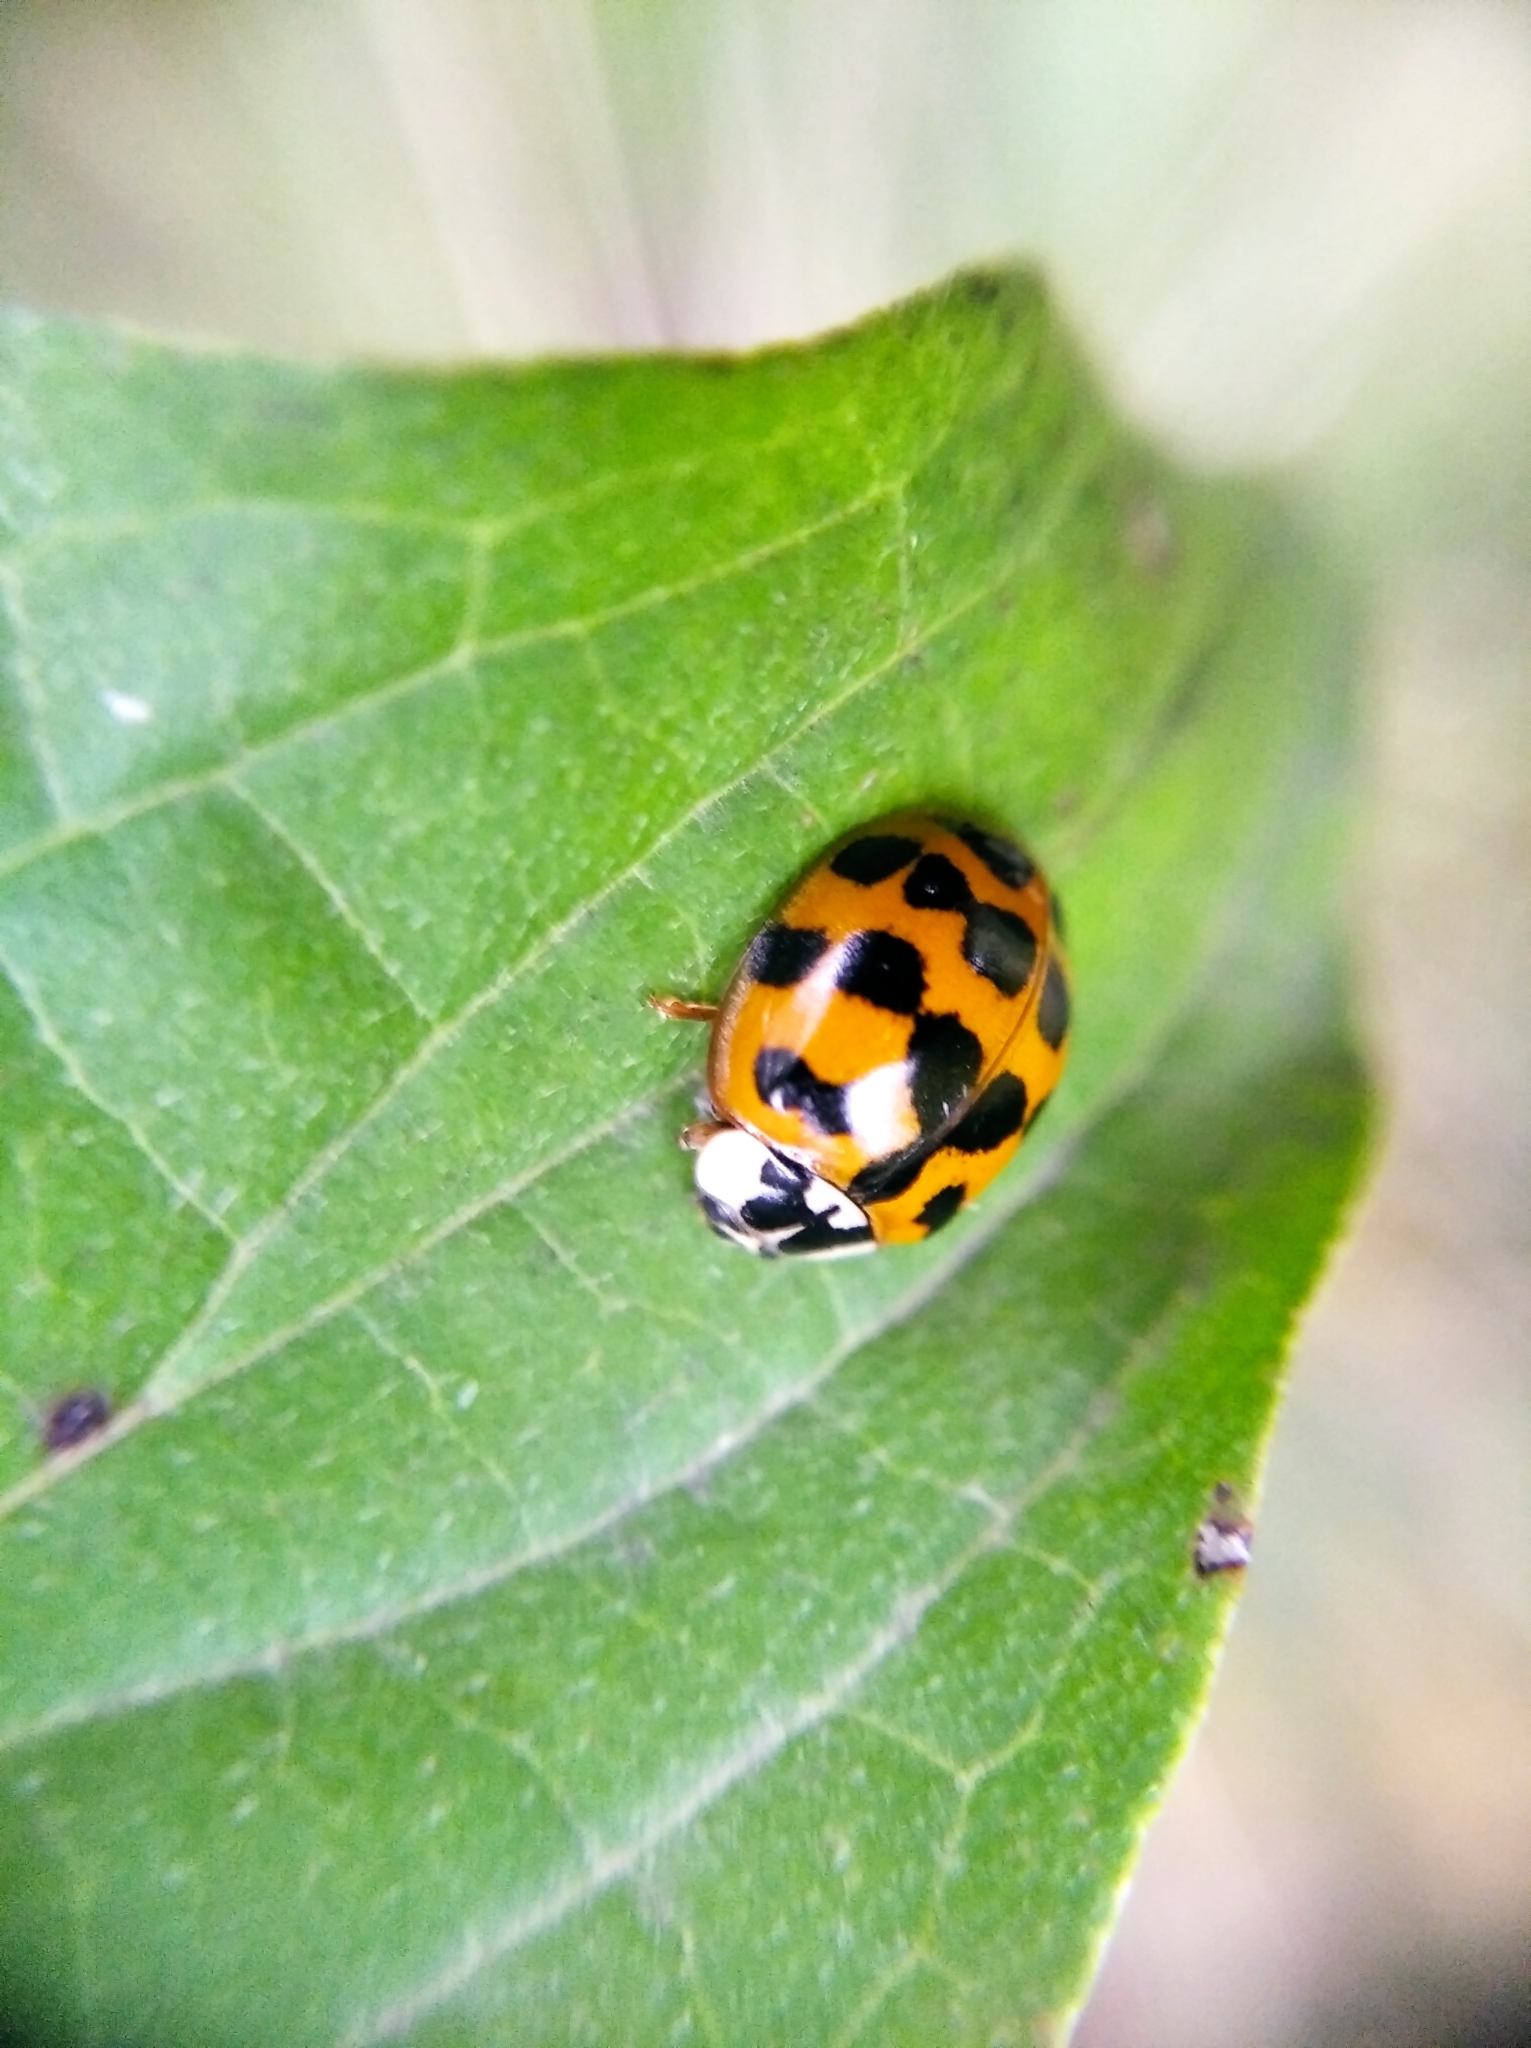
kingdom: Animalia
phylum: Arthropoda
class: Insecta
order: Coleoptera
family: Coccinellidae
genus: Harmonia
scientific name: Harmonia axyridis
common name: Harlequin ladybird
